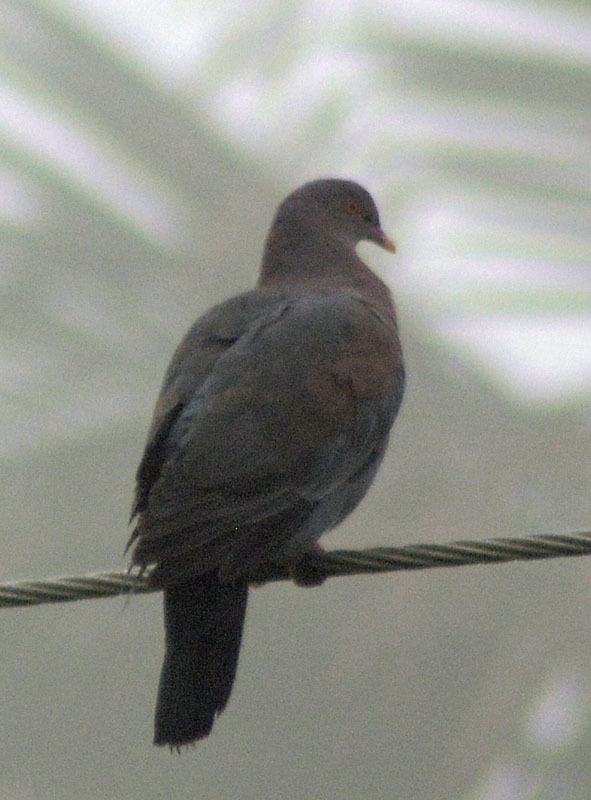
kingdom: Animalia
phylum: Chordata
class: Aves
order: Columbiformes
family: Columbidae
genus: Patagioenas
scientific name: Patagioenas flavirostris
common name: Red-billed pigeon
